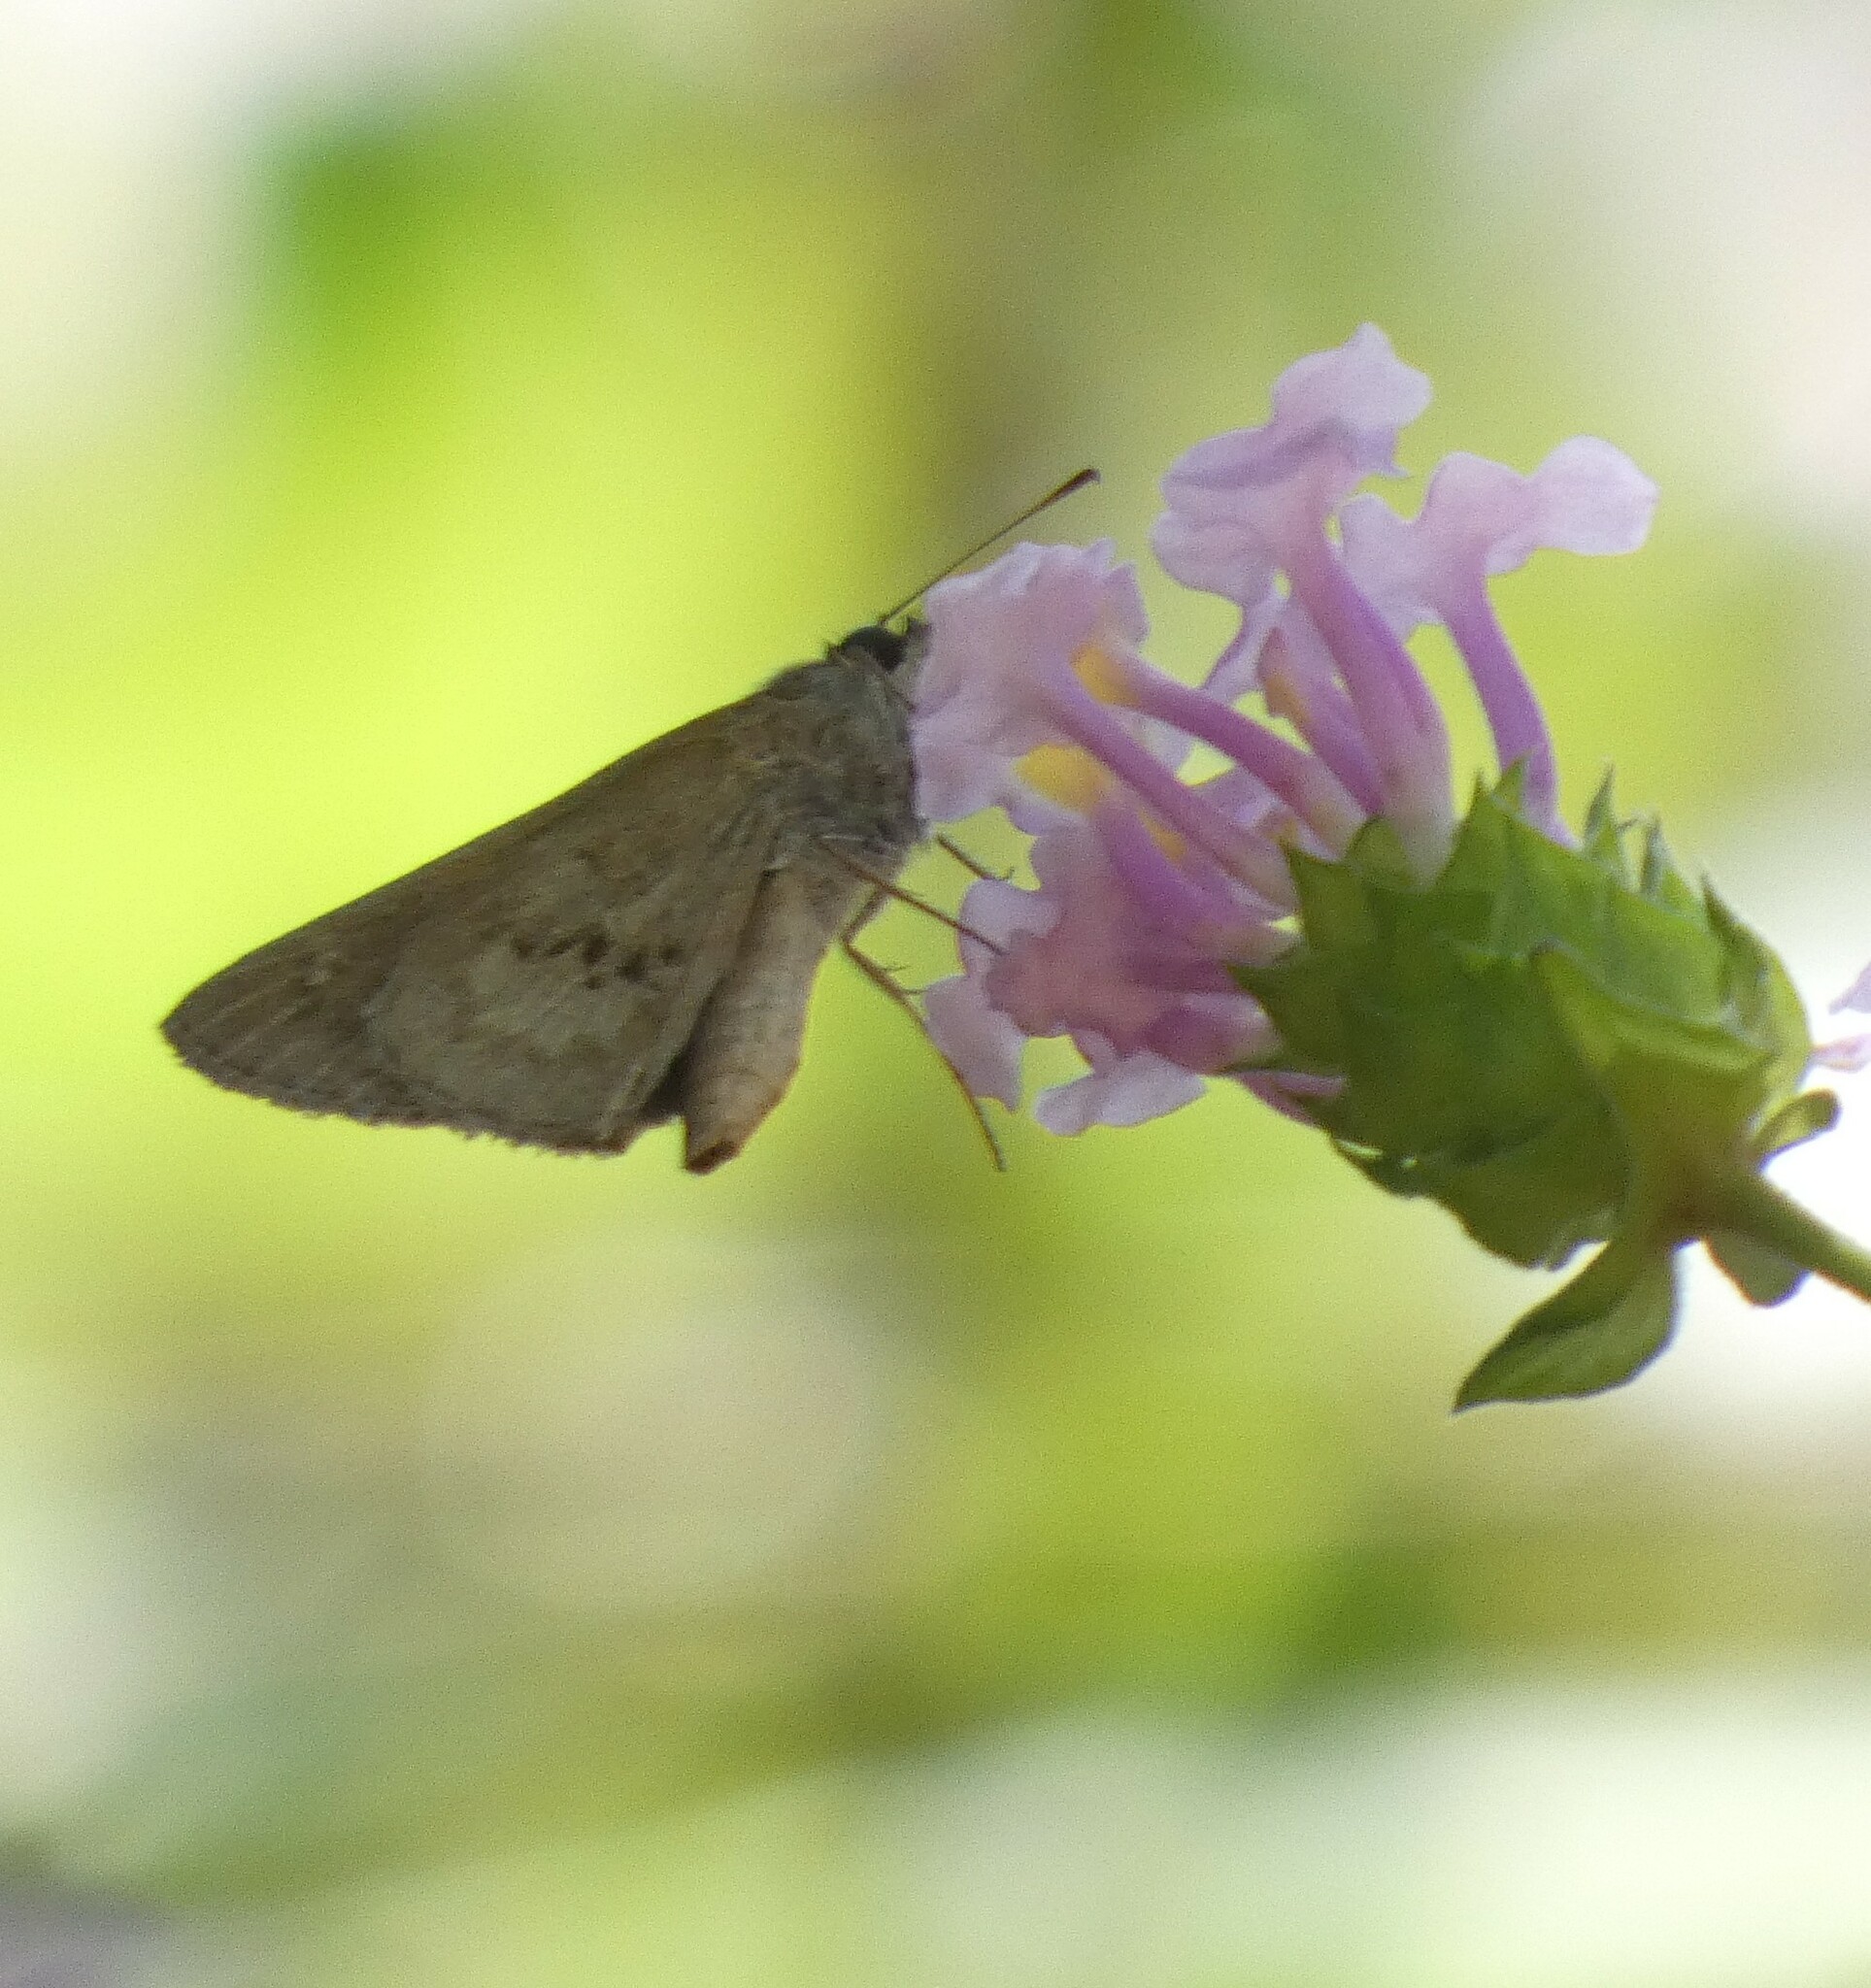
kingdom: Animalia
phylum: Arthropoda
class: Insecta
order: Lepidoptera
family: Hesperiidae
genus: Cymaenes
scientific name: Cymaenes gisca
